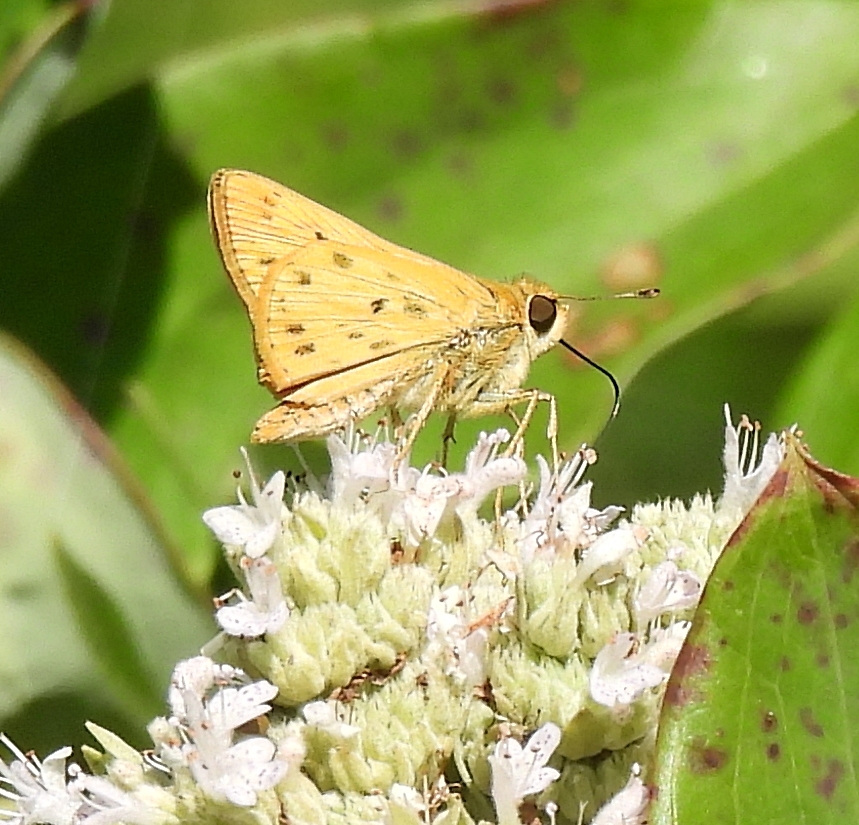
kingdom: Animalia
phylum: Arthropoda
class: Insecta
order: Lepidoptera
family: Hesperiidae
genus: Hylephila
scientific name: Hylephila phyleus
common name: Fiery skipper
